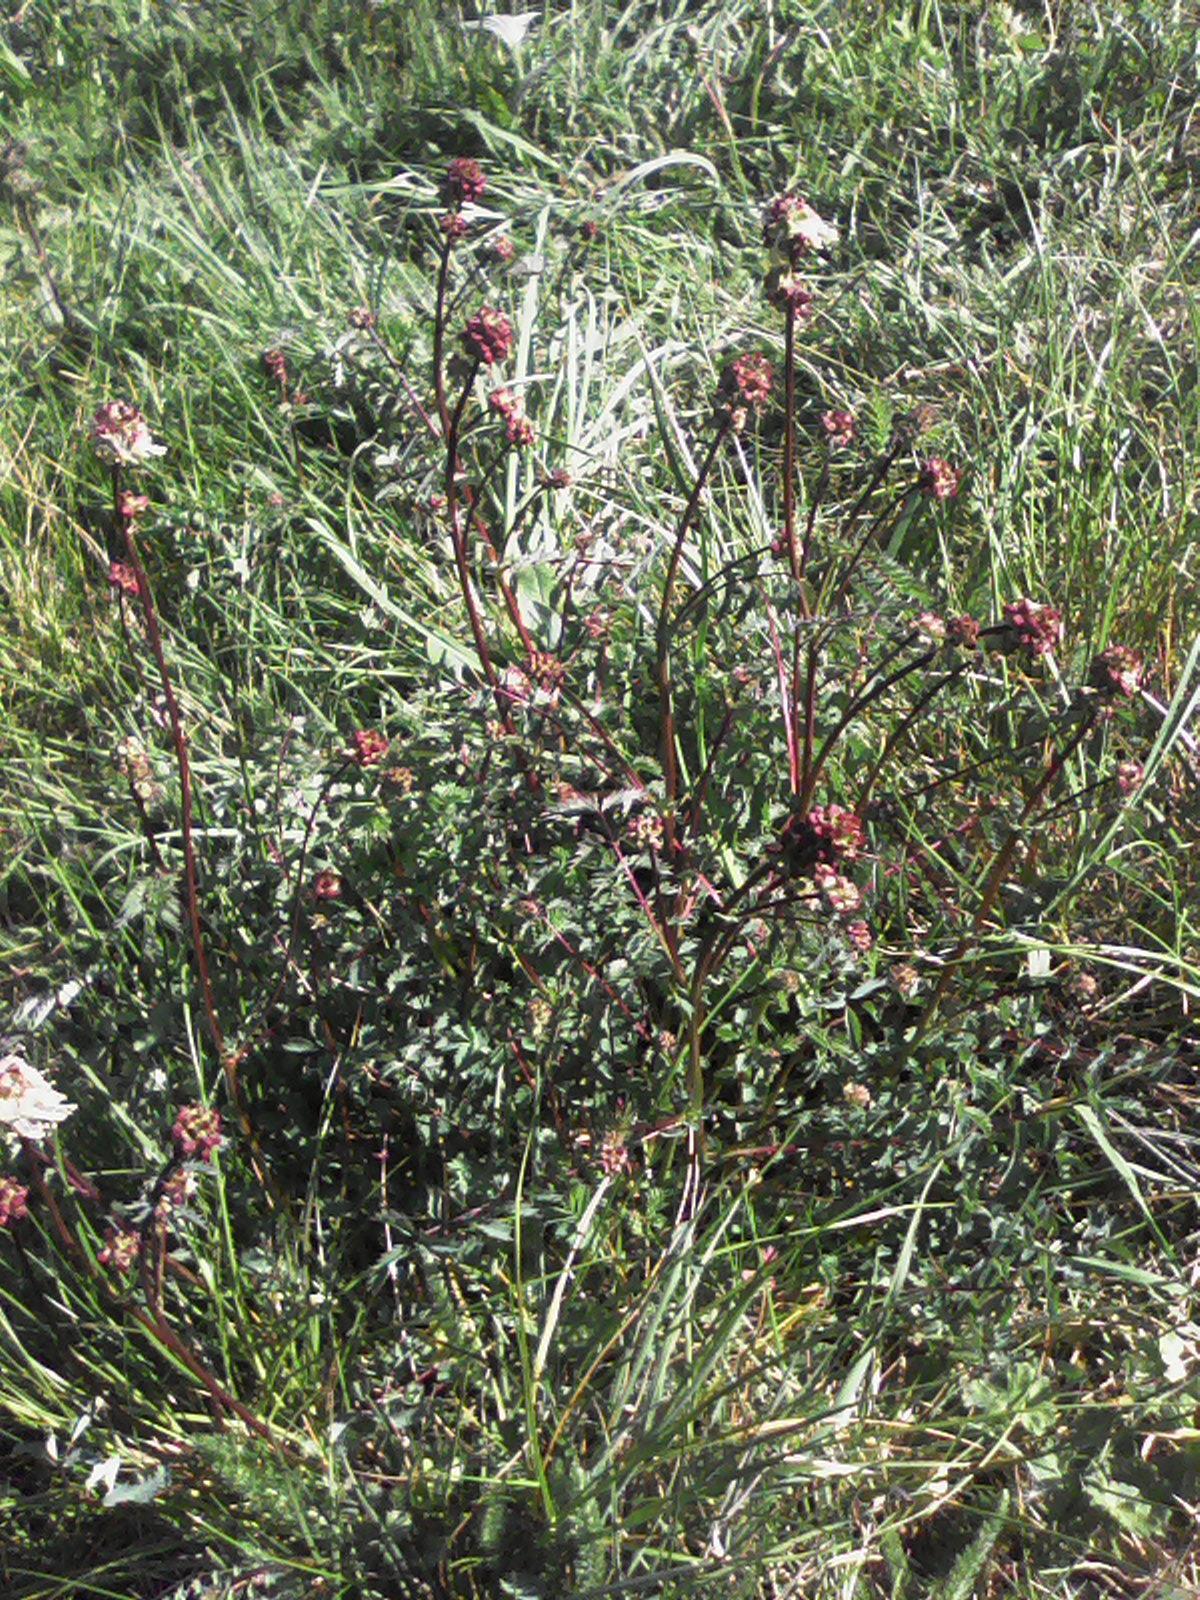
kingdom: Plantae
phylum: Tracheophyta
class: Magnoliopsida
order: Rosales
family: Rosaceae
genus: Poterium
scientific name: Poterium sanguisorba
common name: Salad burnet
